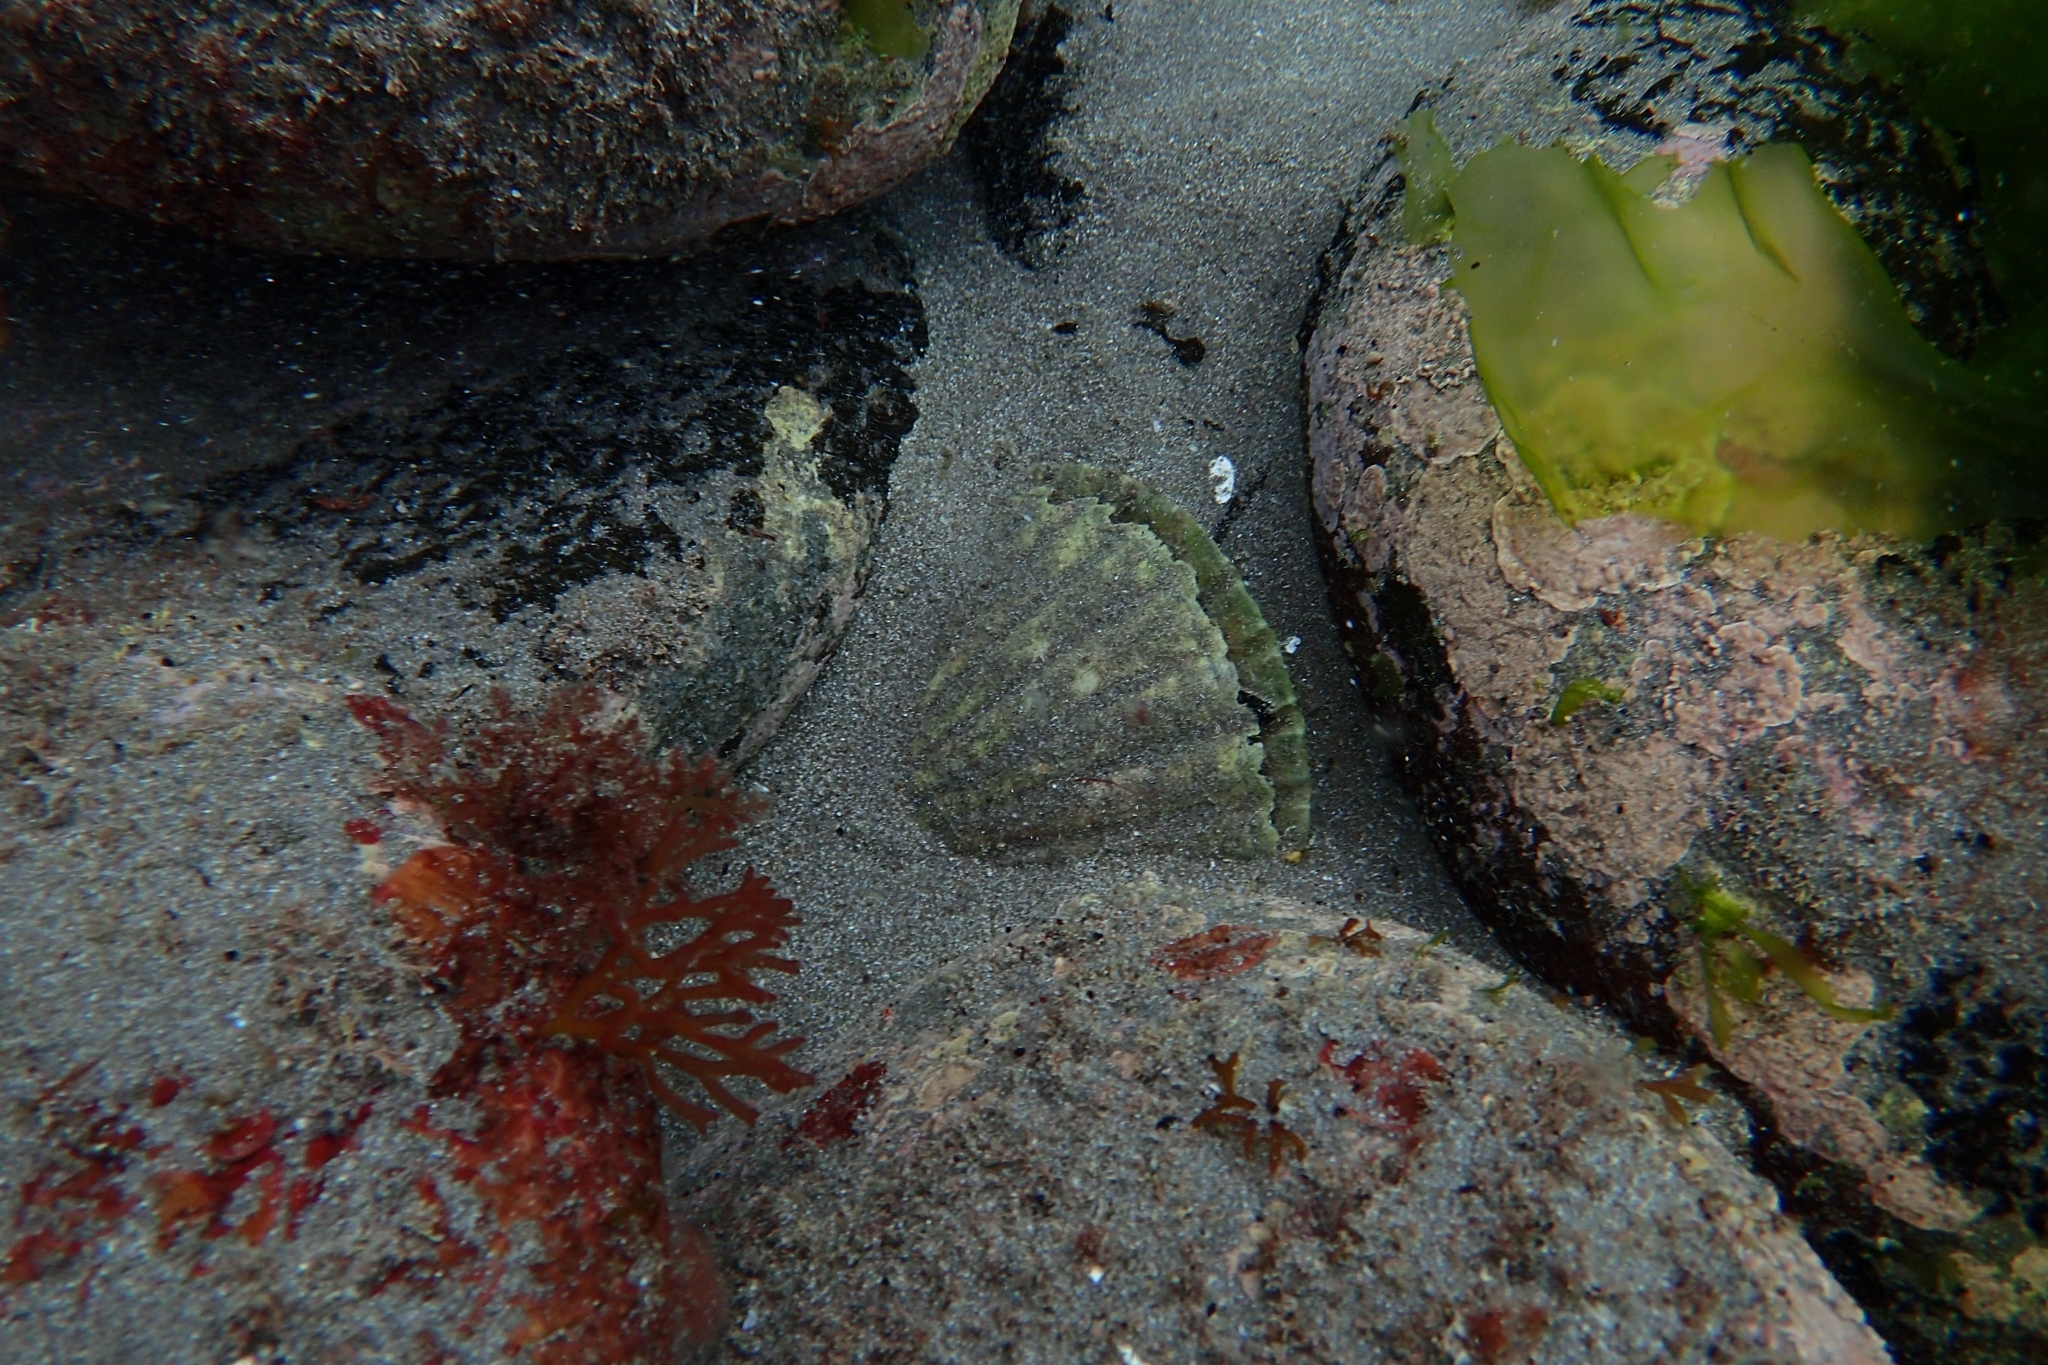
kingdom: Animalia
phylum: Mollusca
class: Bivalvia
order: Pectinida
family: Pectinidae
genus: Pecten
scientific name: Pecten novaezelandiae
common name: New zealand scallop
